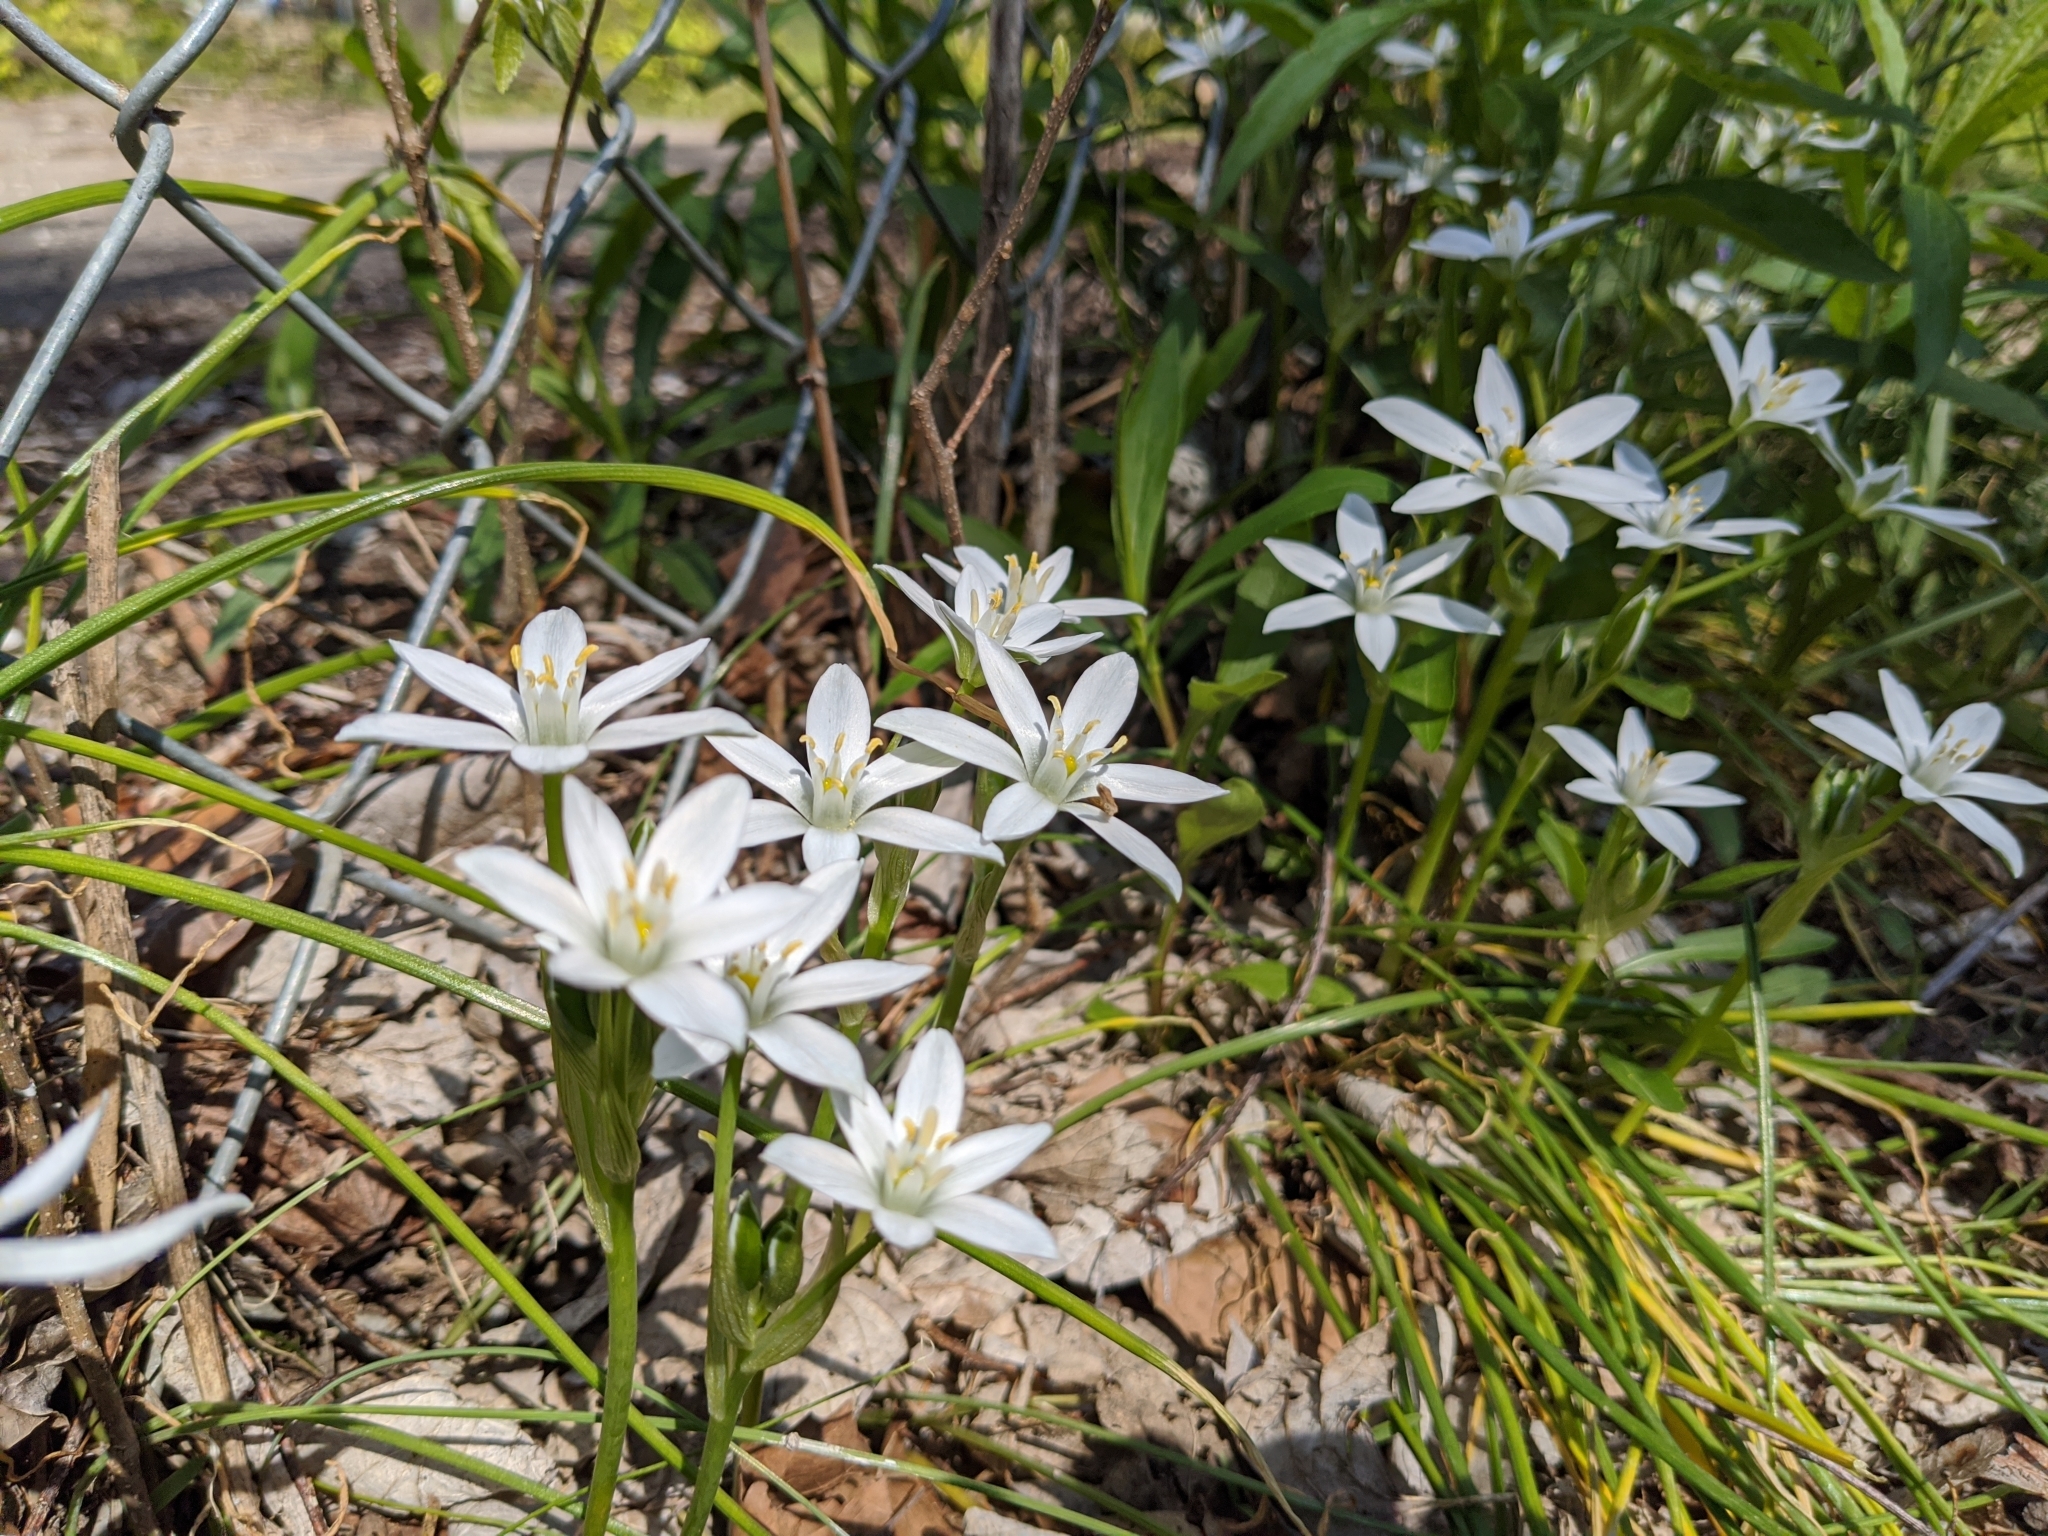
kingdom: Plantae
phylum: Tracheophyta
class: Liliopsida
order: Asparagales
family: Asparagaceae
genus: Ornithogalum
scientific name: Ornithogalum umbellatum
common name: Garden star-of-bethlehem
